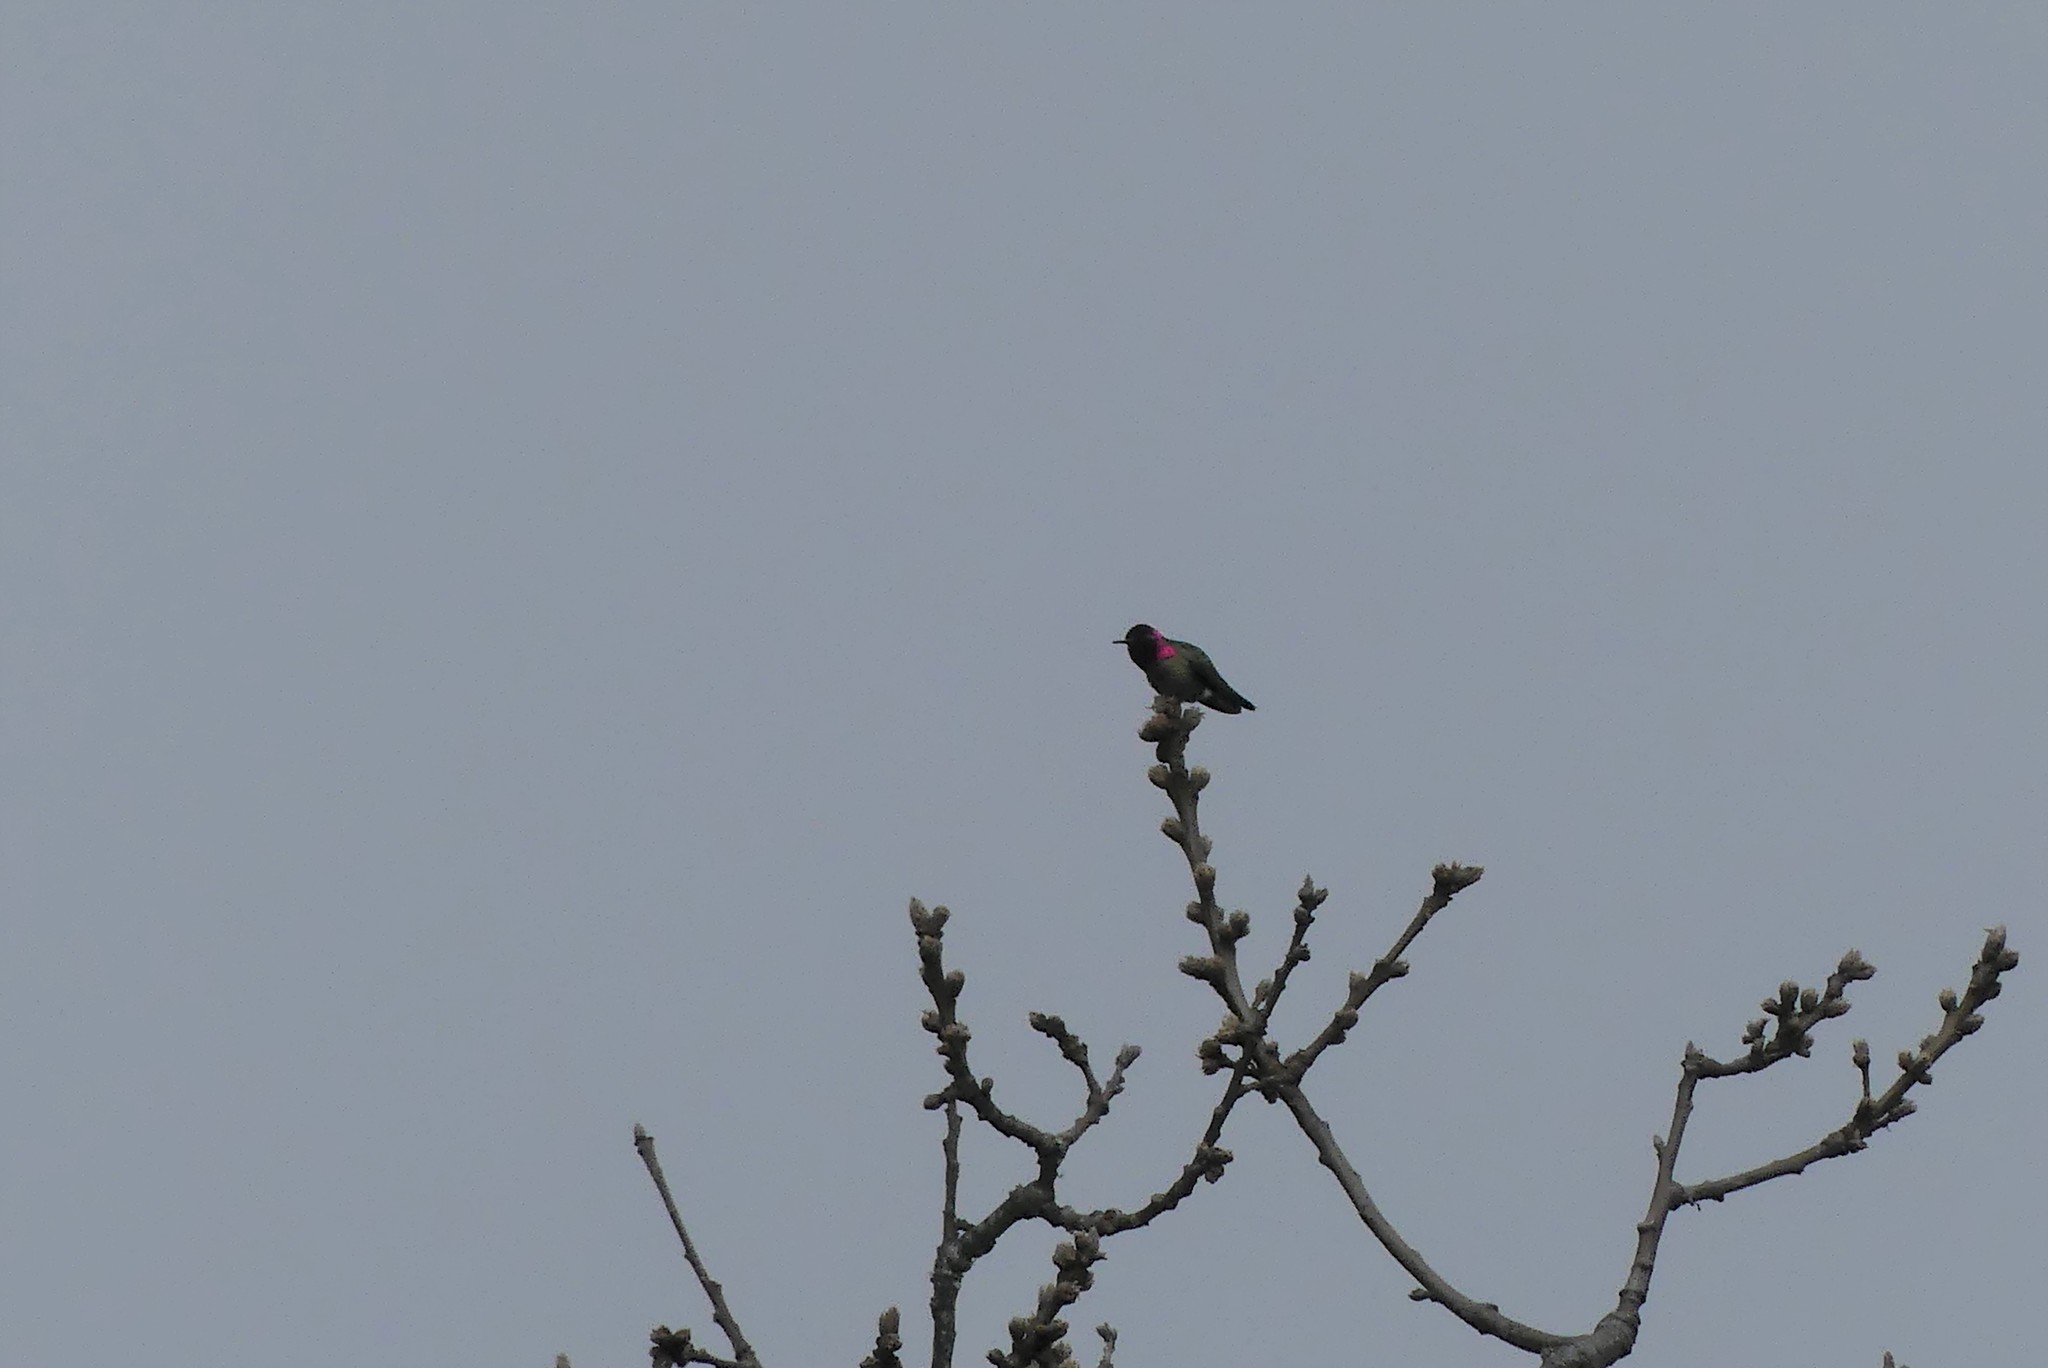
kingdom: Animalia
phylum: Chordata
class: Aves
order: Apodiformes
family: Trochilidae
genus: Calypte
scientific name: Calypte anna
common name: Anna's hummingbird
